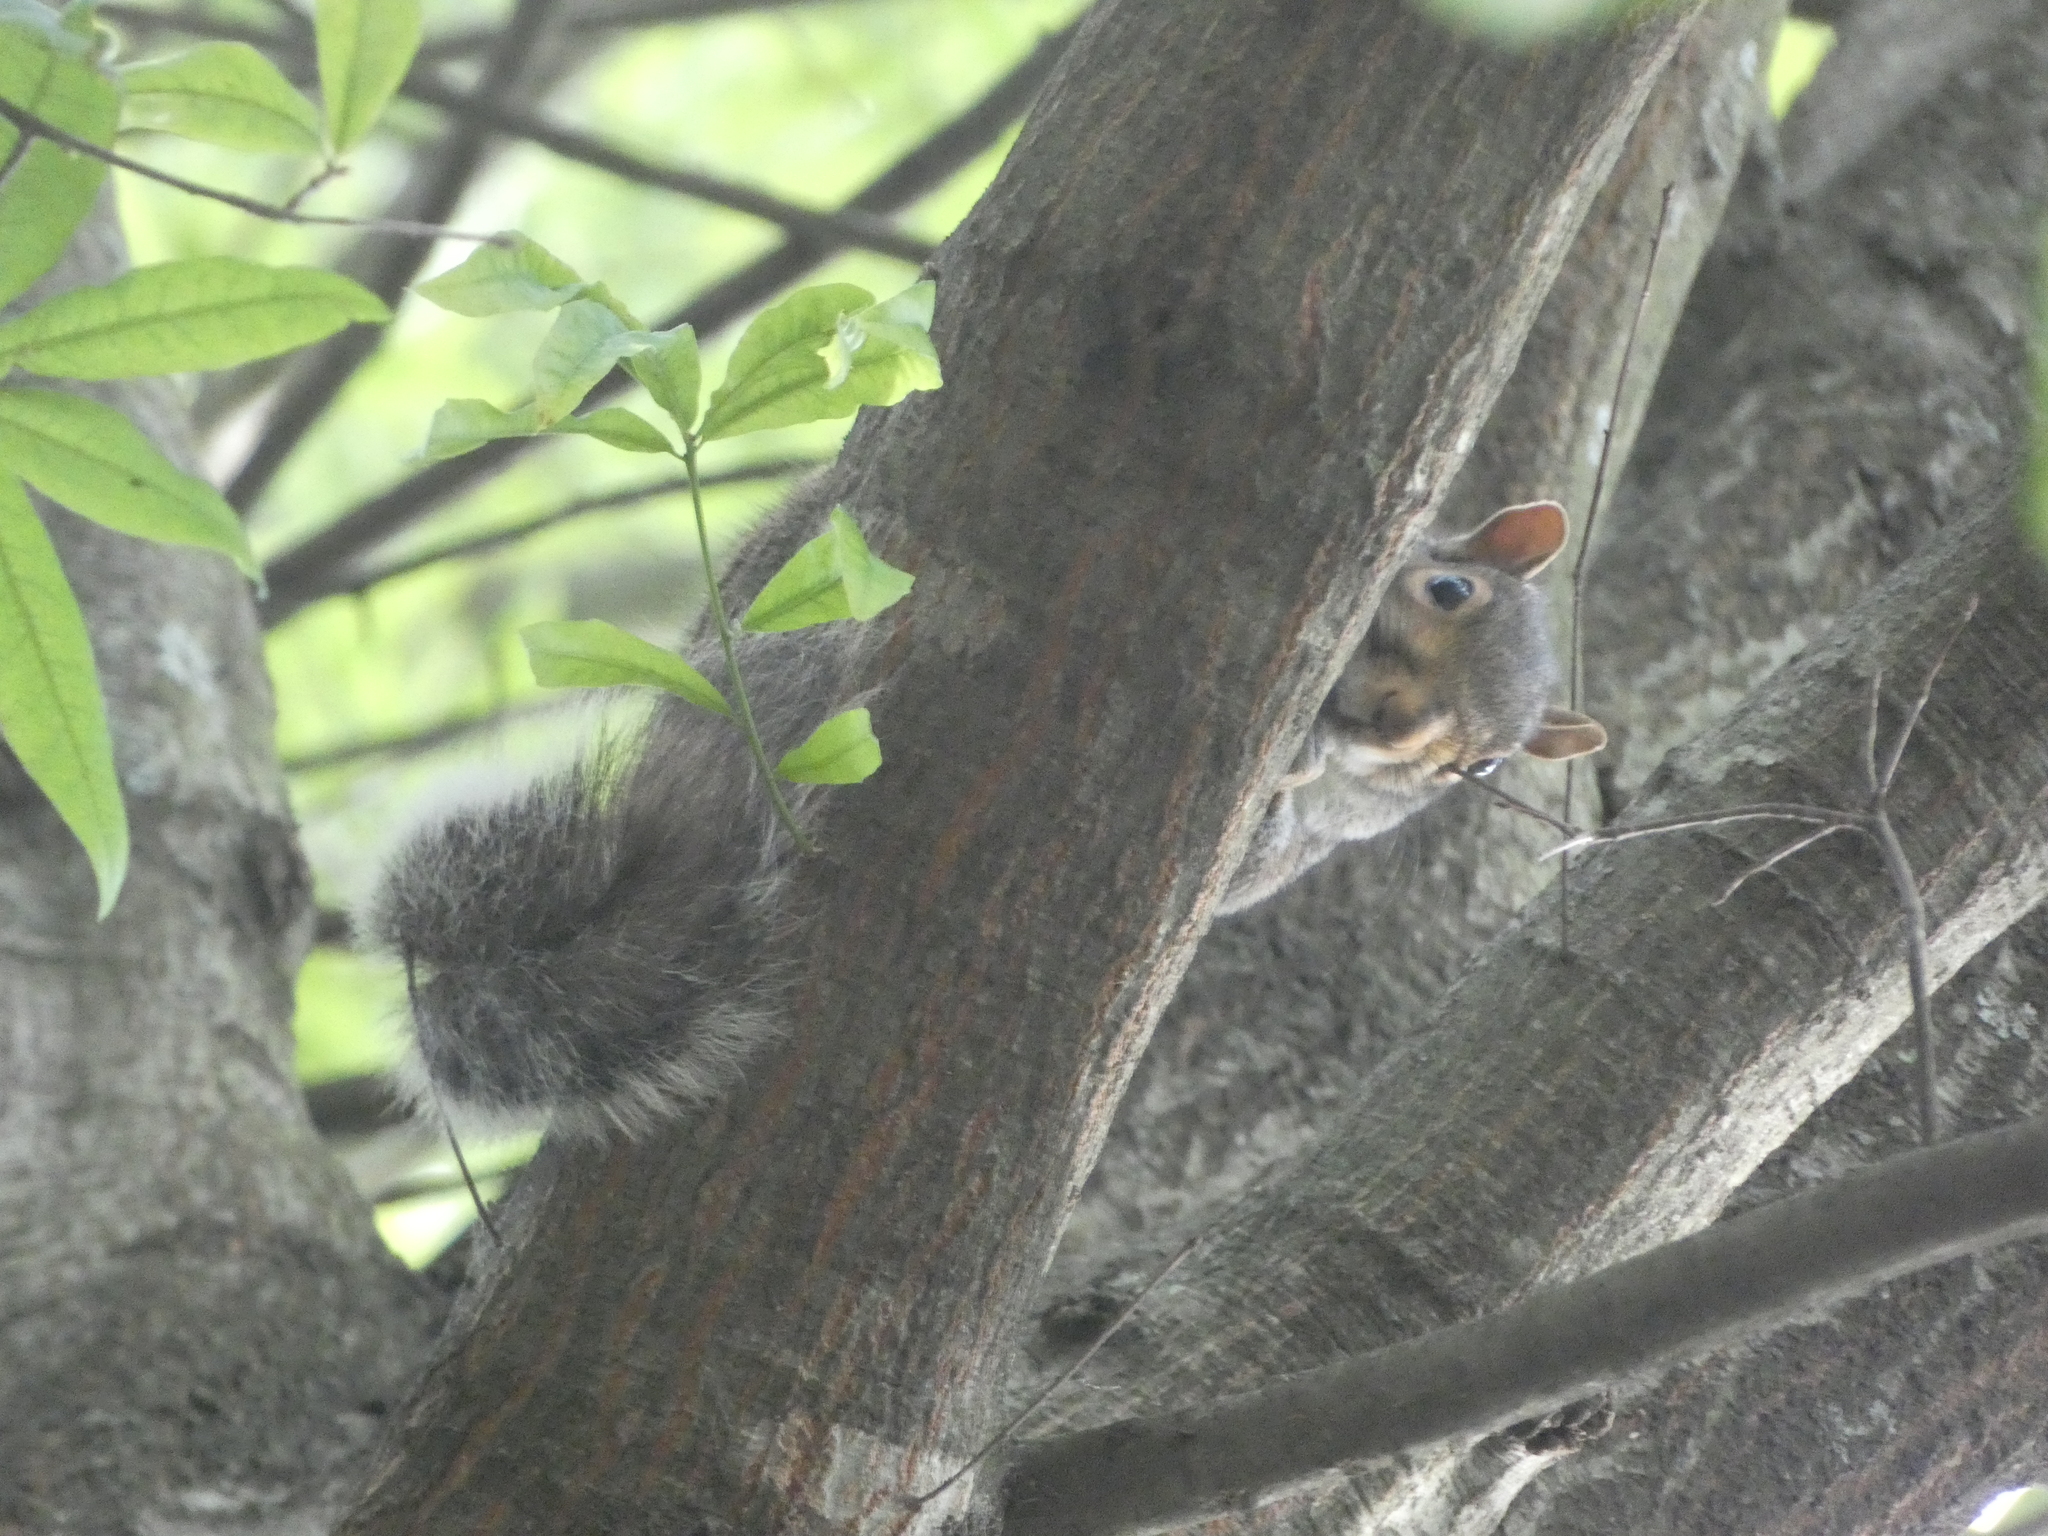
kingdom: Animalia
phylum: Chordata
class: Mammalia
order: Rodentia
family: Sciuridae
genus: Sciurus
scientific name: Sciurus carolinensis
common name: Eastern gray squirrel
